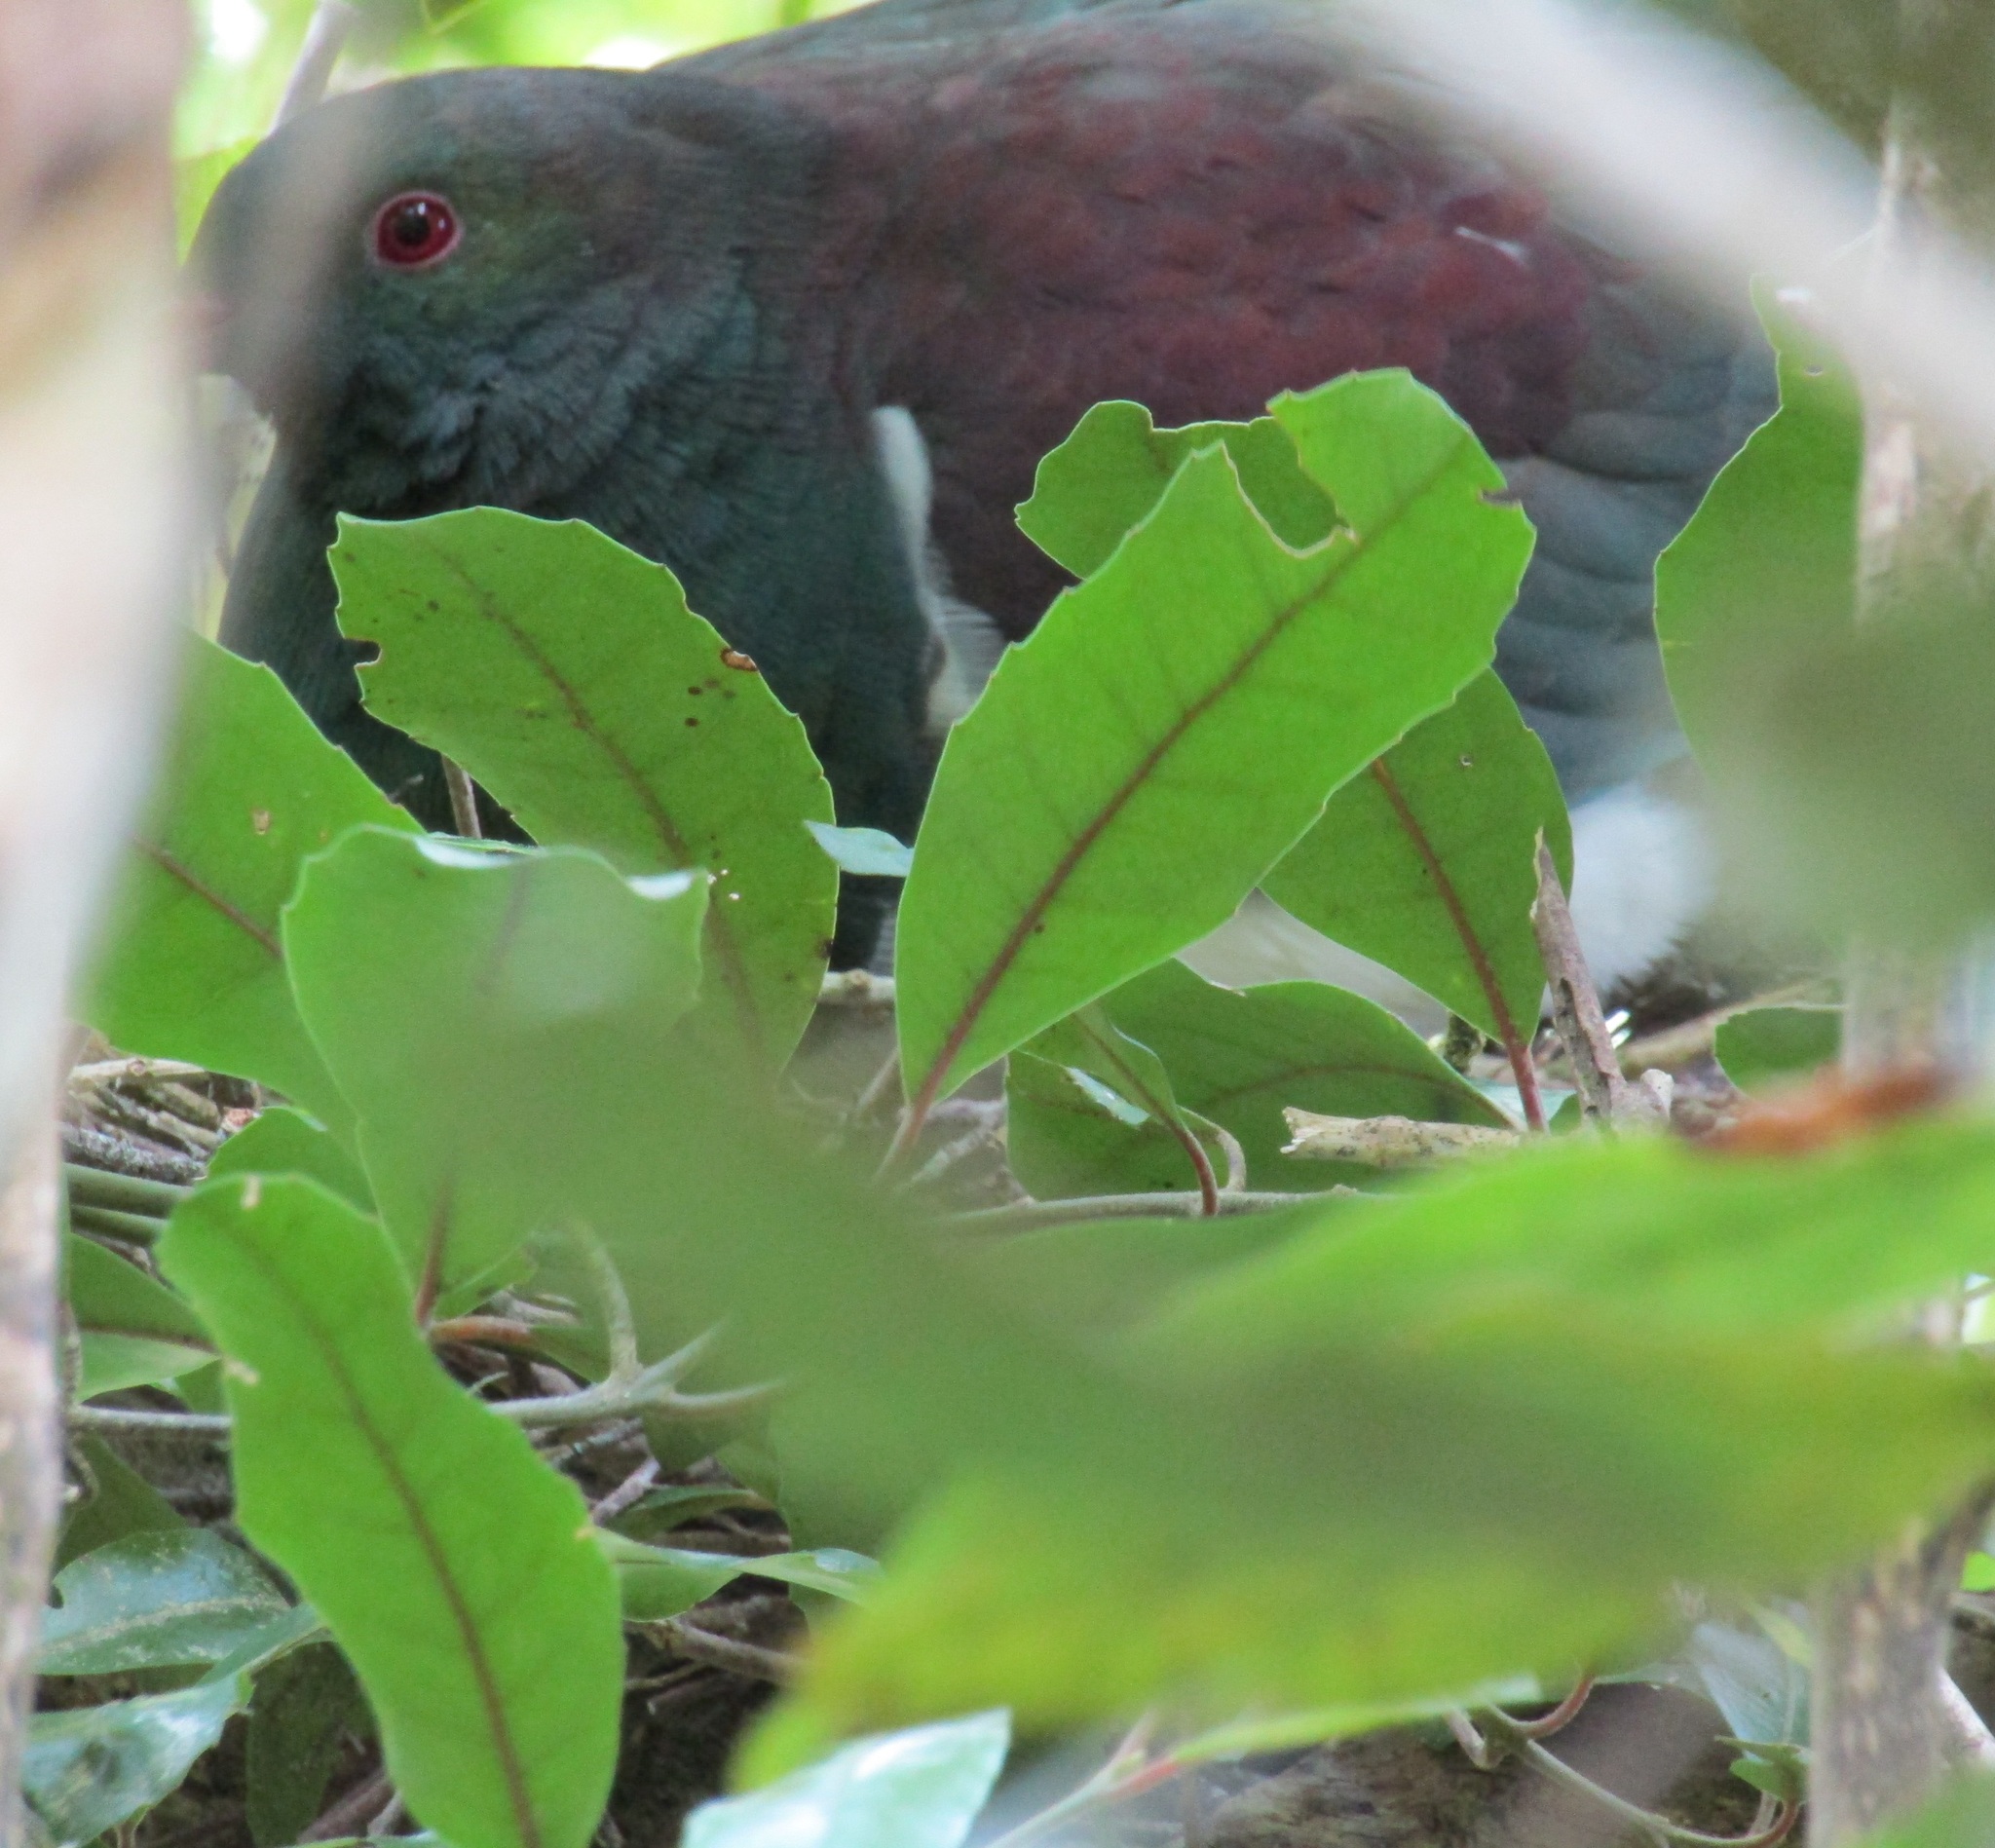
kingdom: Animalia
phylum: Chordata
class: Aves
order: Columbiformes
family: Columbidae
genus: Hemiphaga
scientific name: Hemiphaga novaeseelandiae
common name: New zealand pigeon
